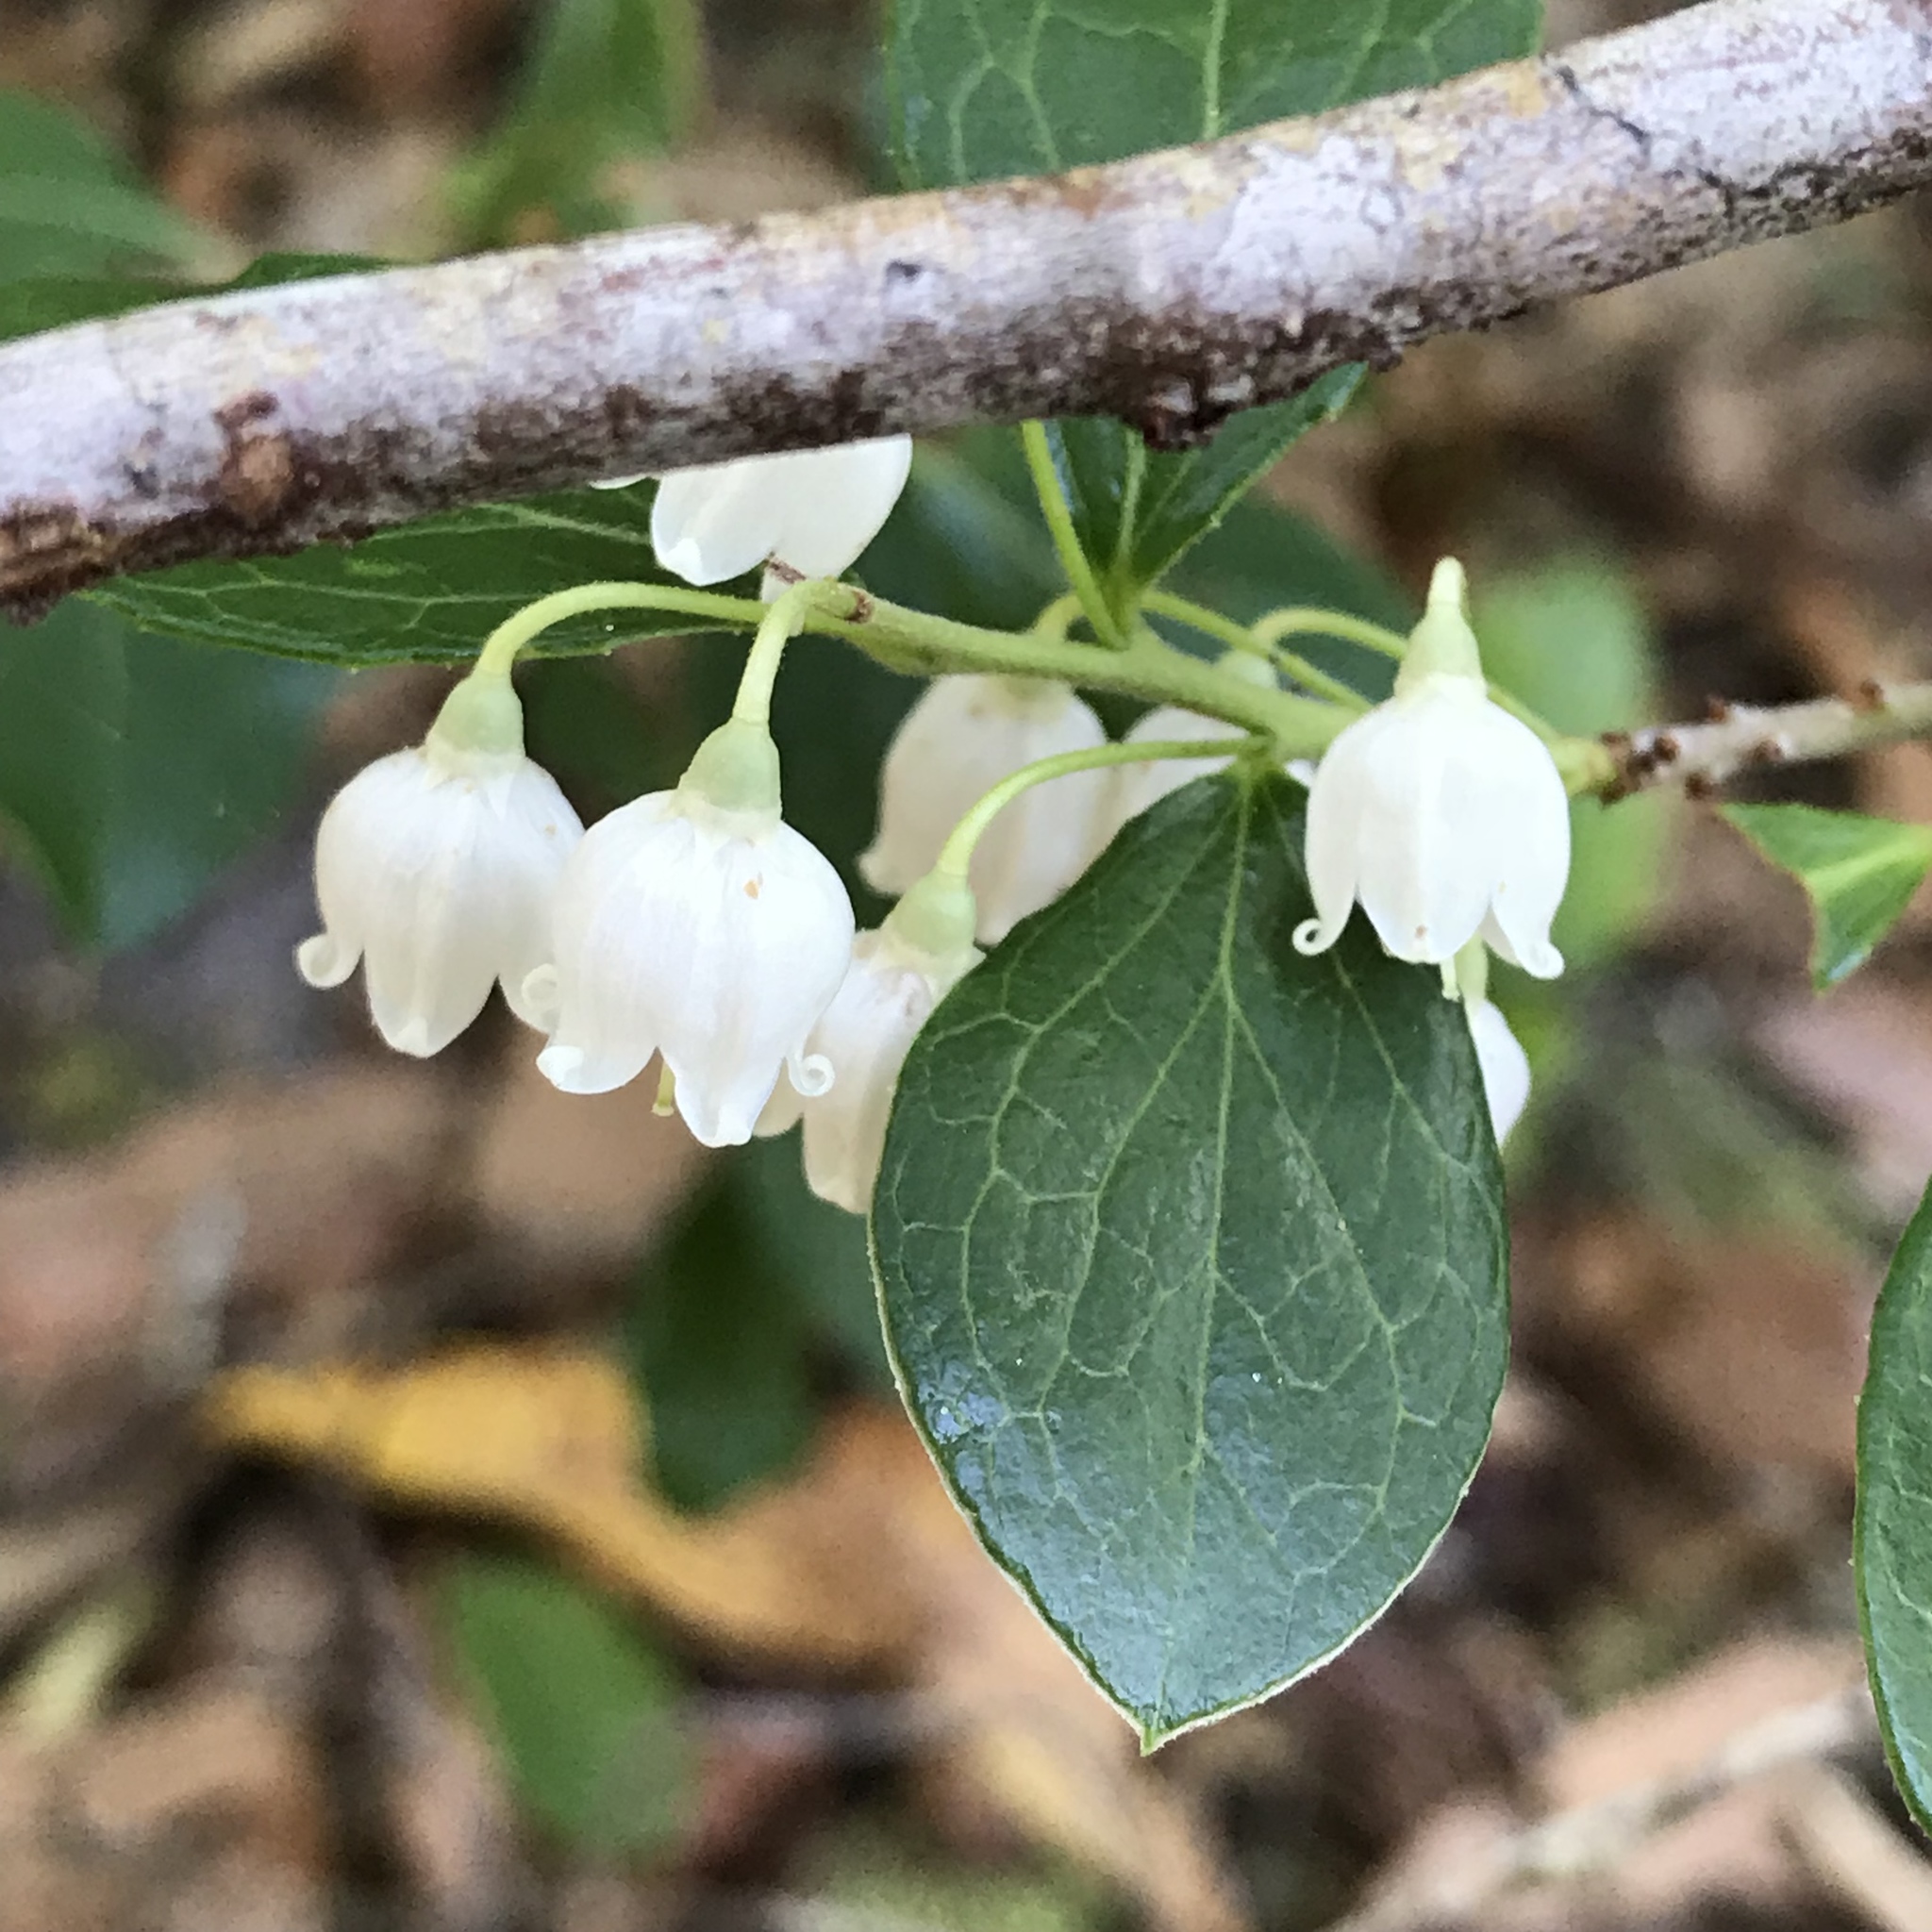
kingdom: Plantae
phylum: Tracheophyta
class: Magnoliopsida
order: Ericales
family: Ericaceae
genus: Vaccinium
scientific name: Vaccinium arboreum
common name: Farkleberry
